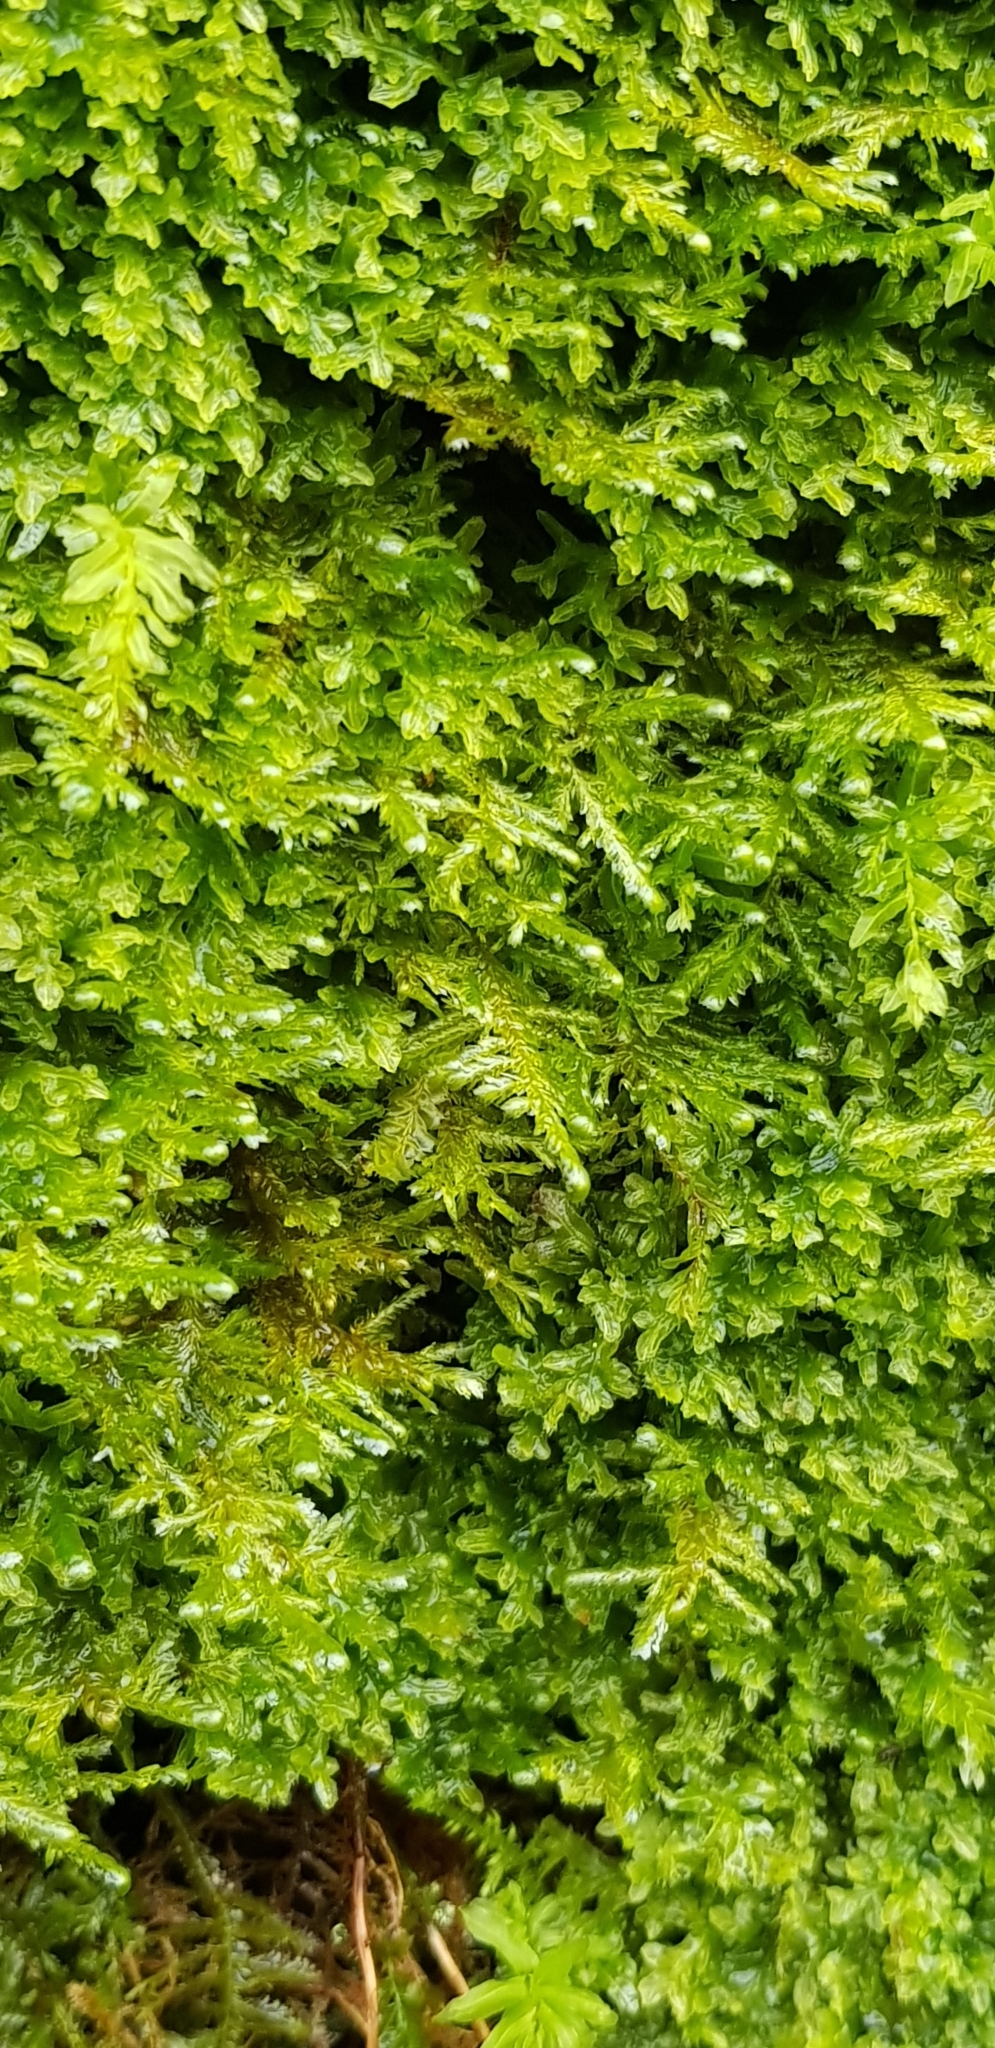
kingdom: Plantae
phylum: Bryophyta
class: Bryopsida
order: Hypnales
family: Neckeraceae
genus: Alleniella
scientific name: Alleniella complanata
